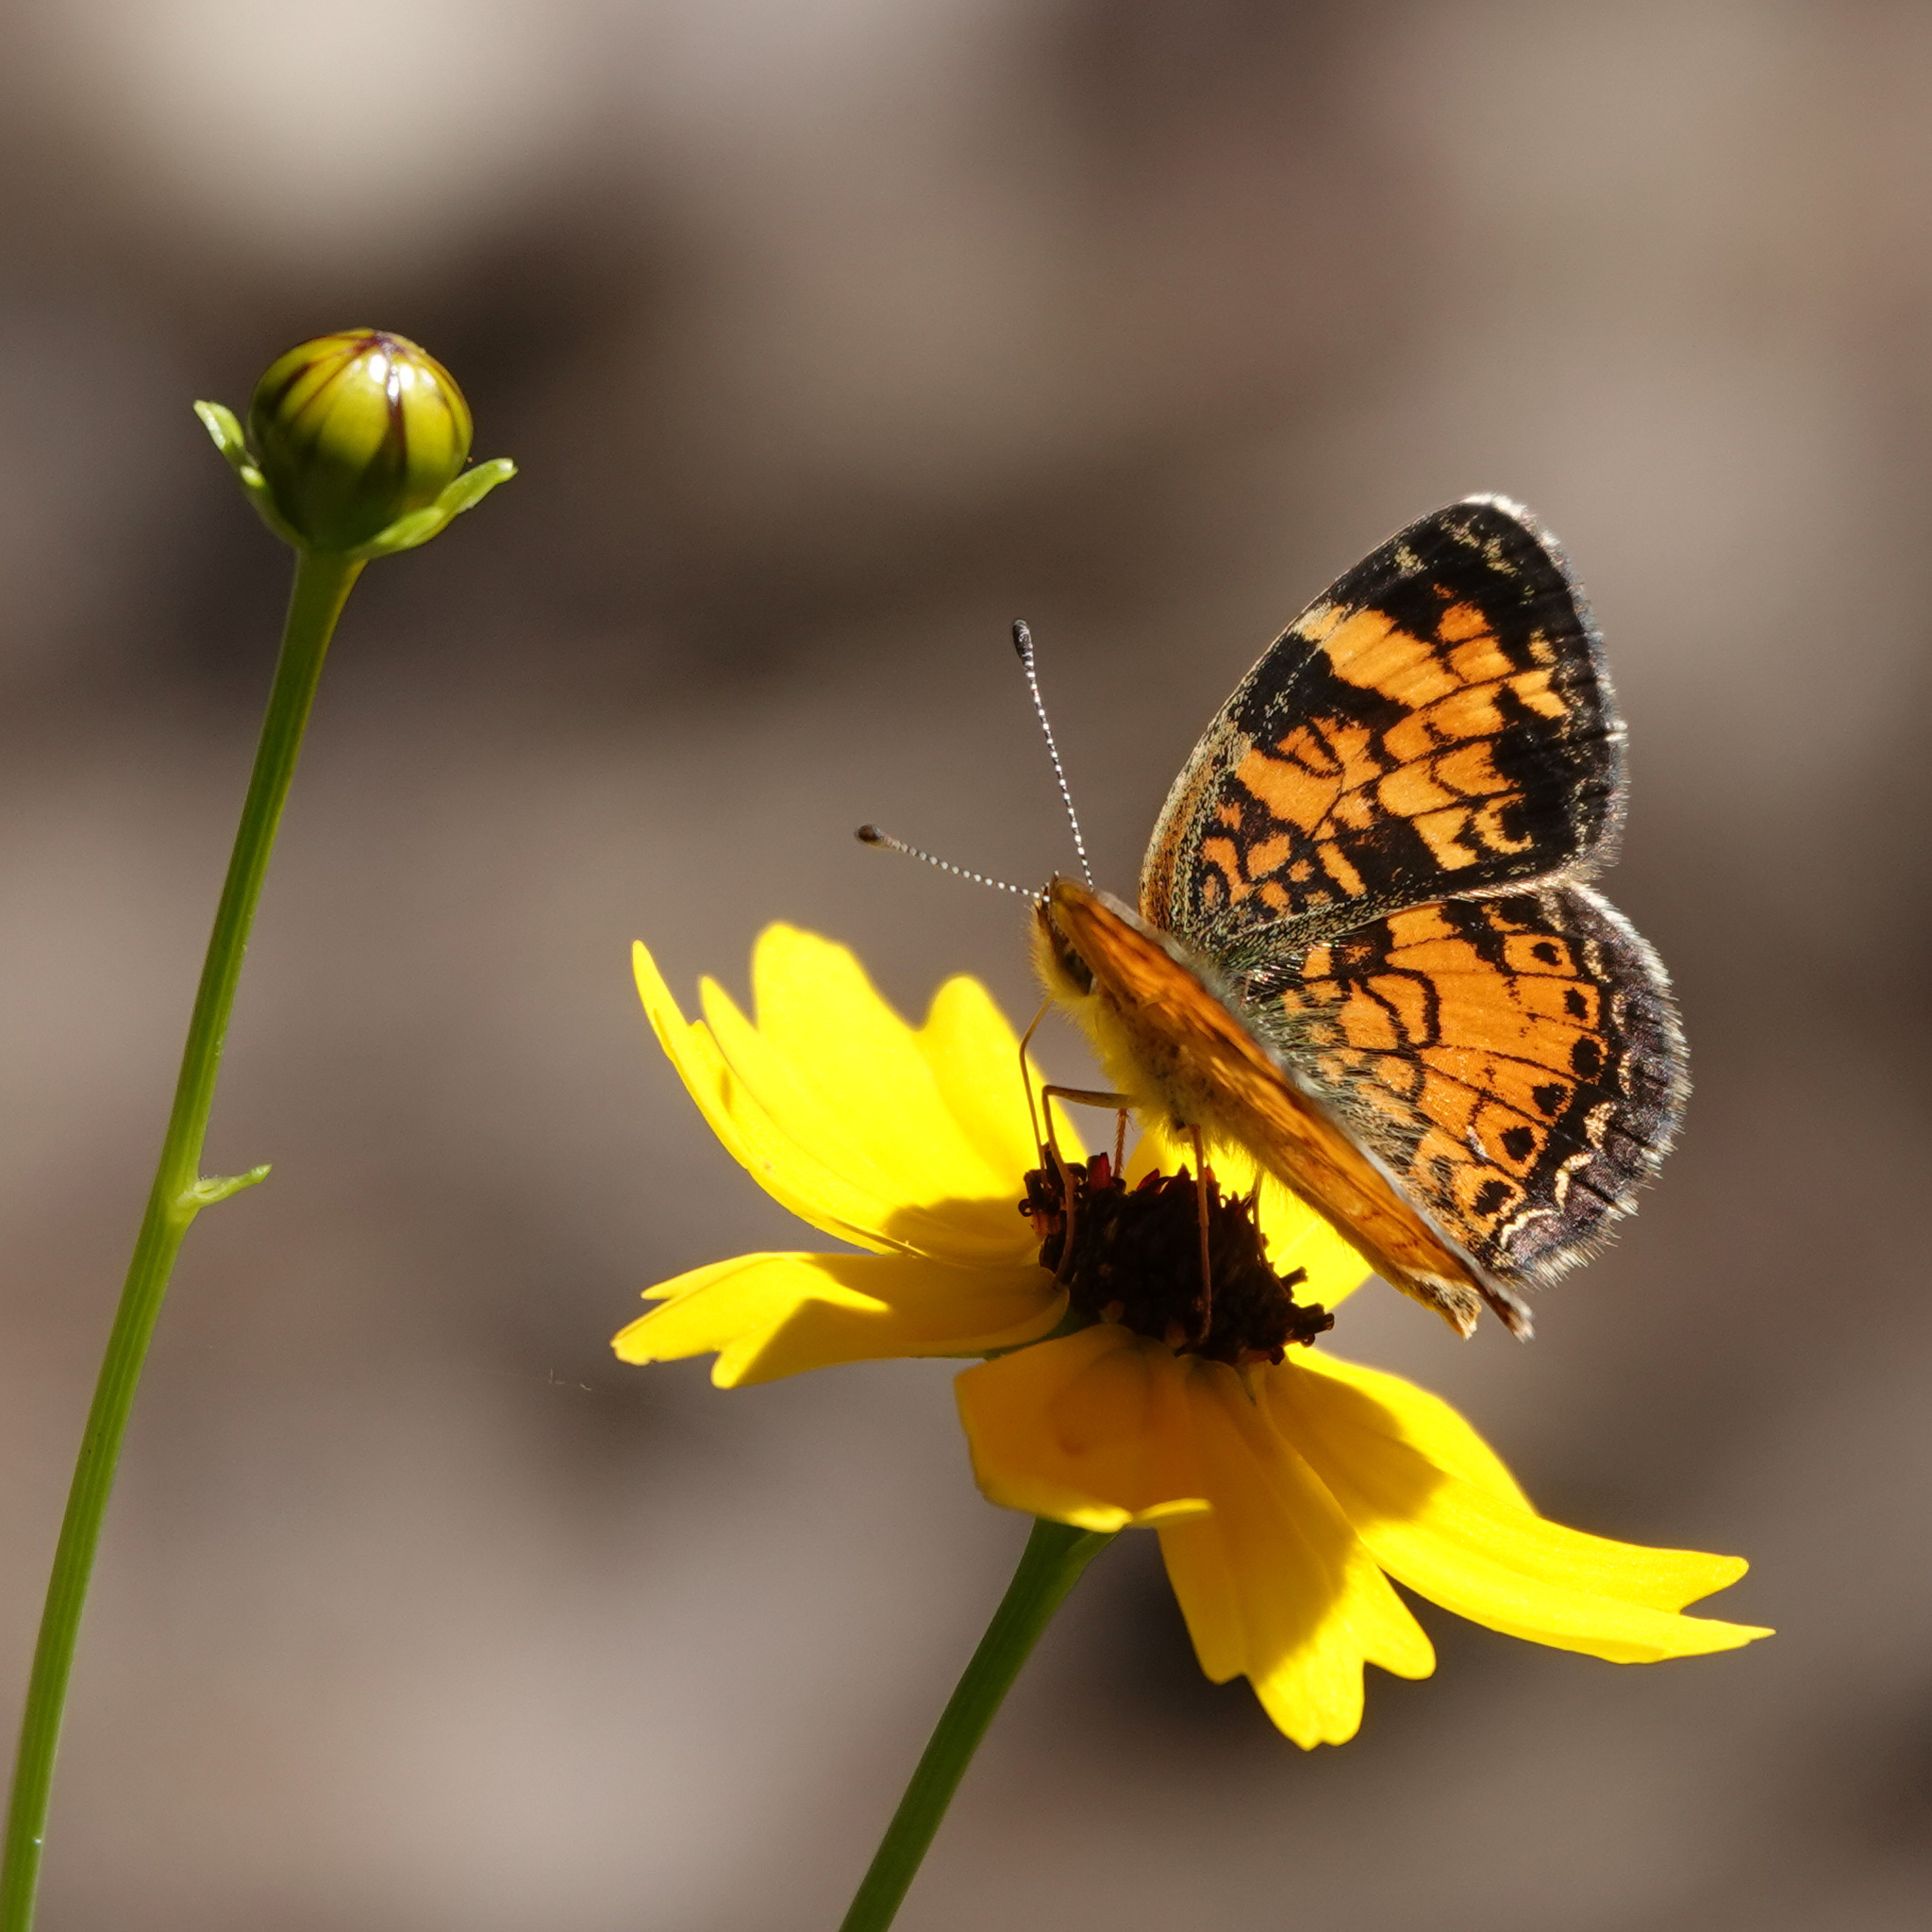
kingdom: Animalia
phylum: Arthropoda
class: Insecta
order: Lepidoptera
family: Nymphalidae
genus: Phyciodes
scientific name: Phyciodes tharos
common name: Pearl crescent
